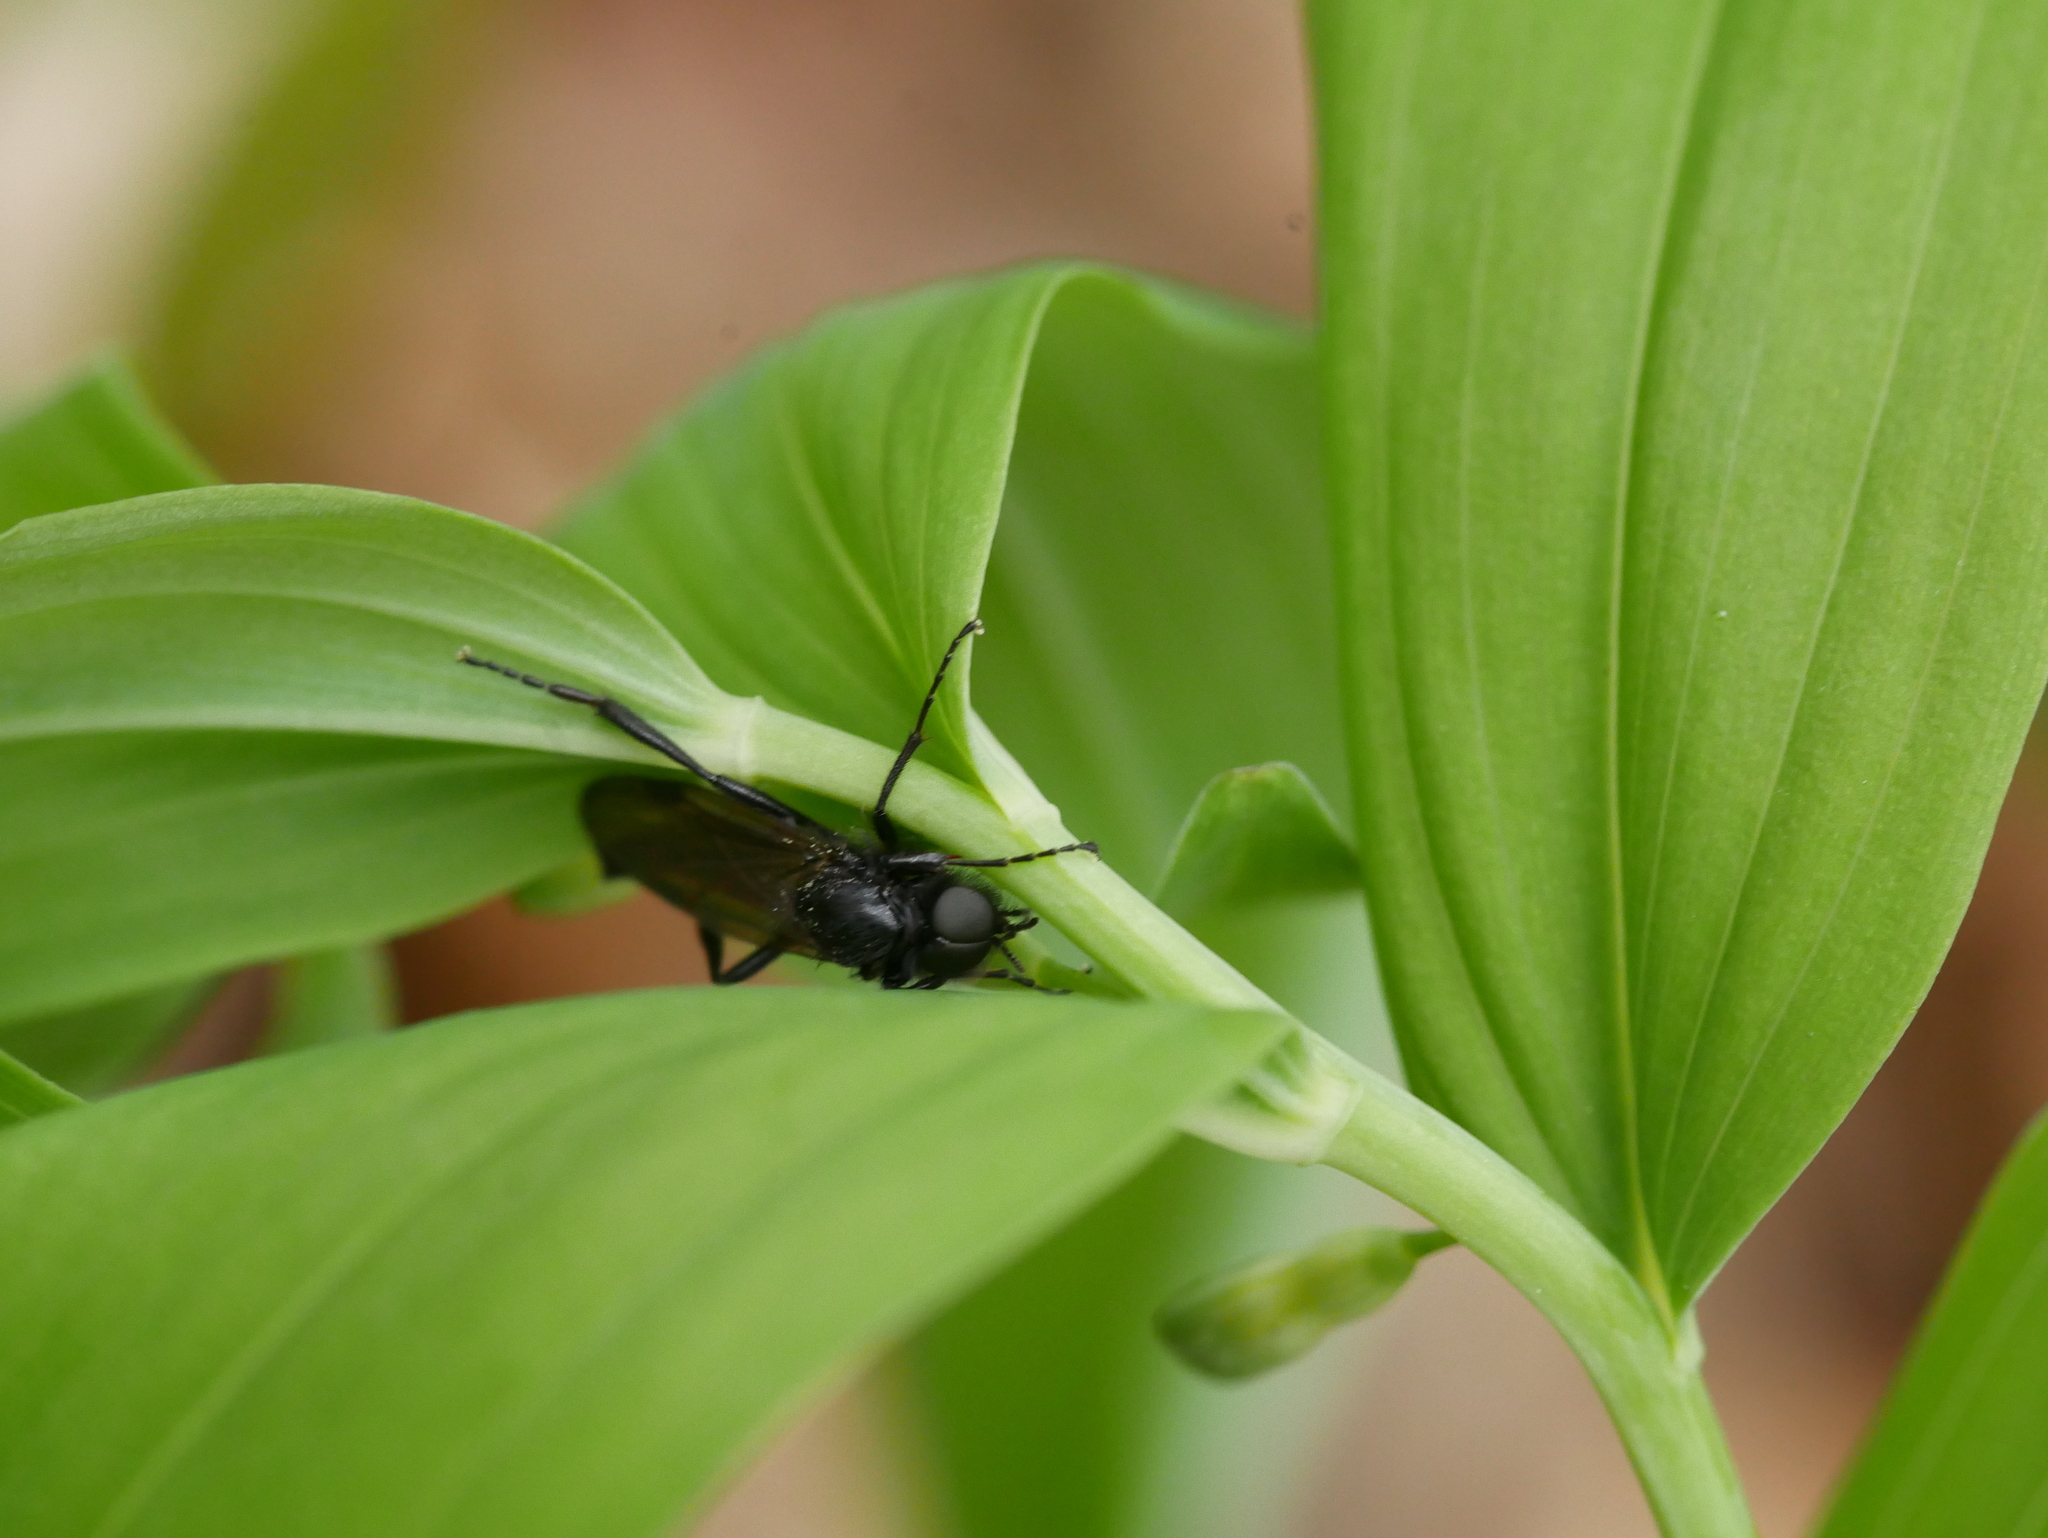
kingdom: Animalia
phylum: Arthropoda
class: Insecta
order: Diptera
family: Bibionidae
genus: Bibio
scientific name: Bibio marci
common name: St marks fly
